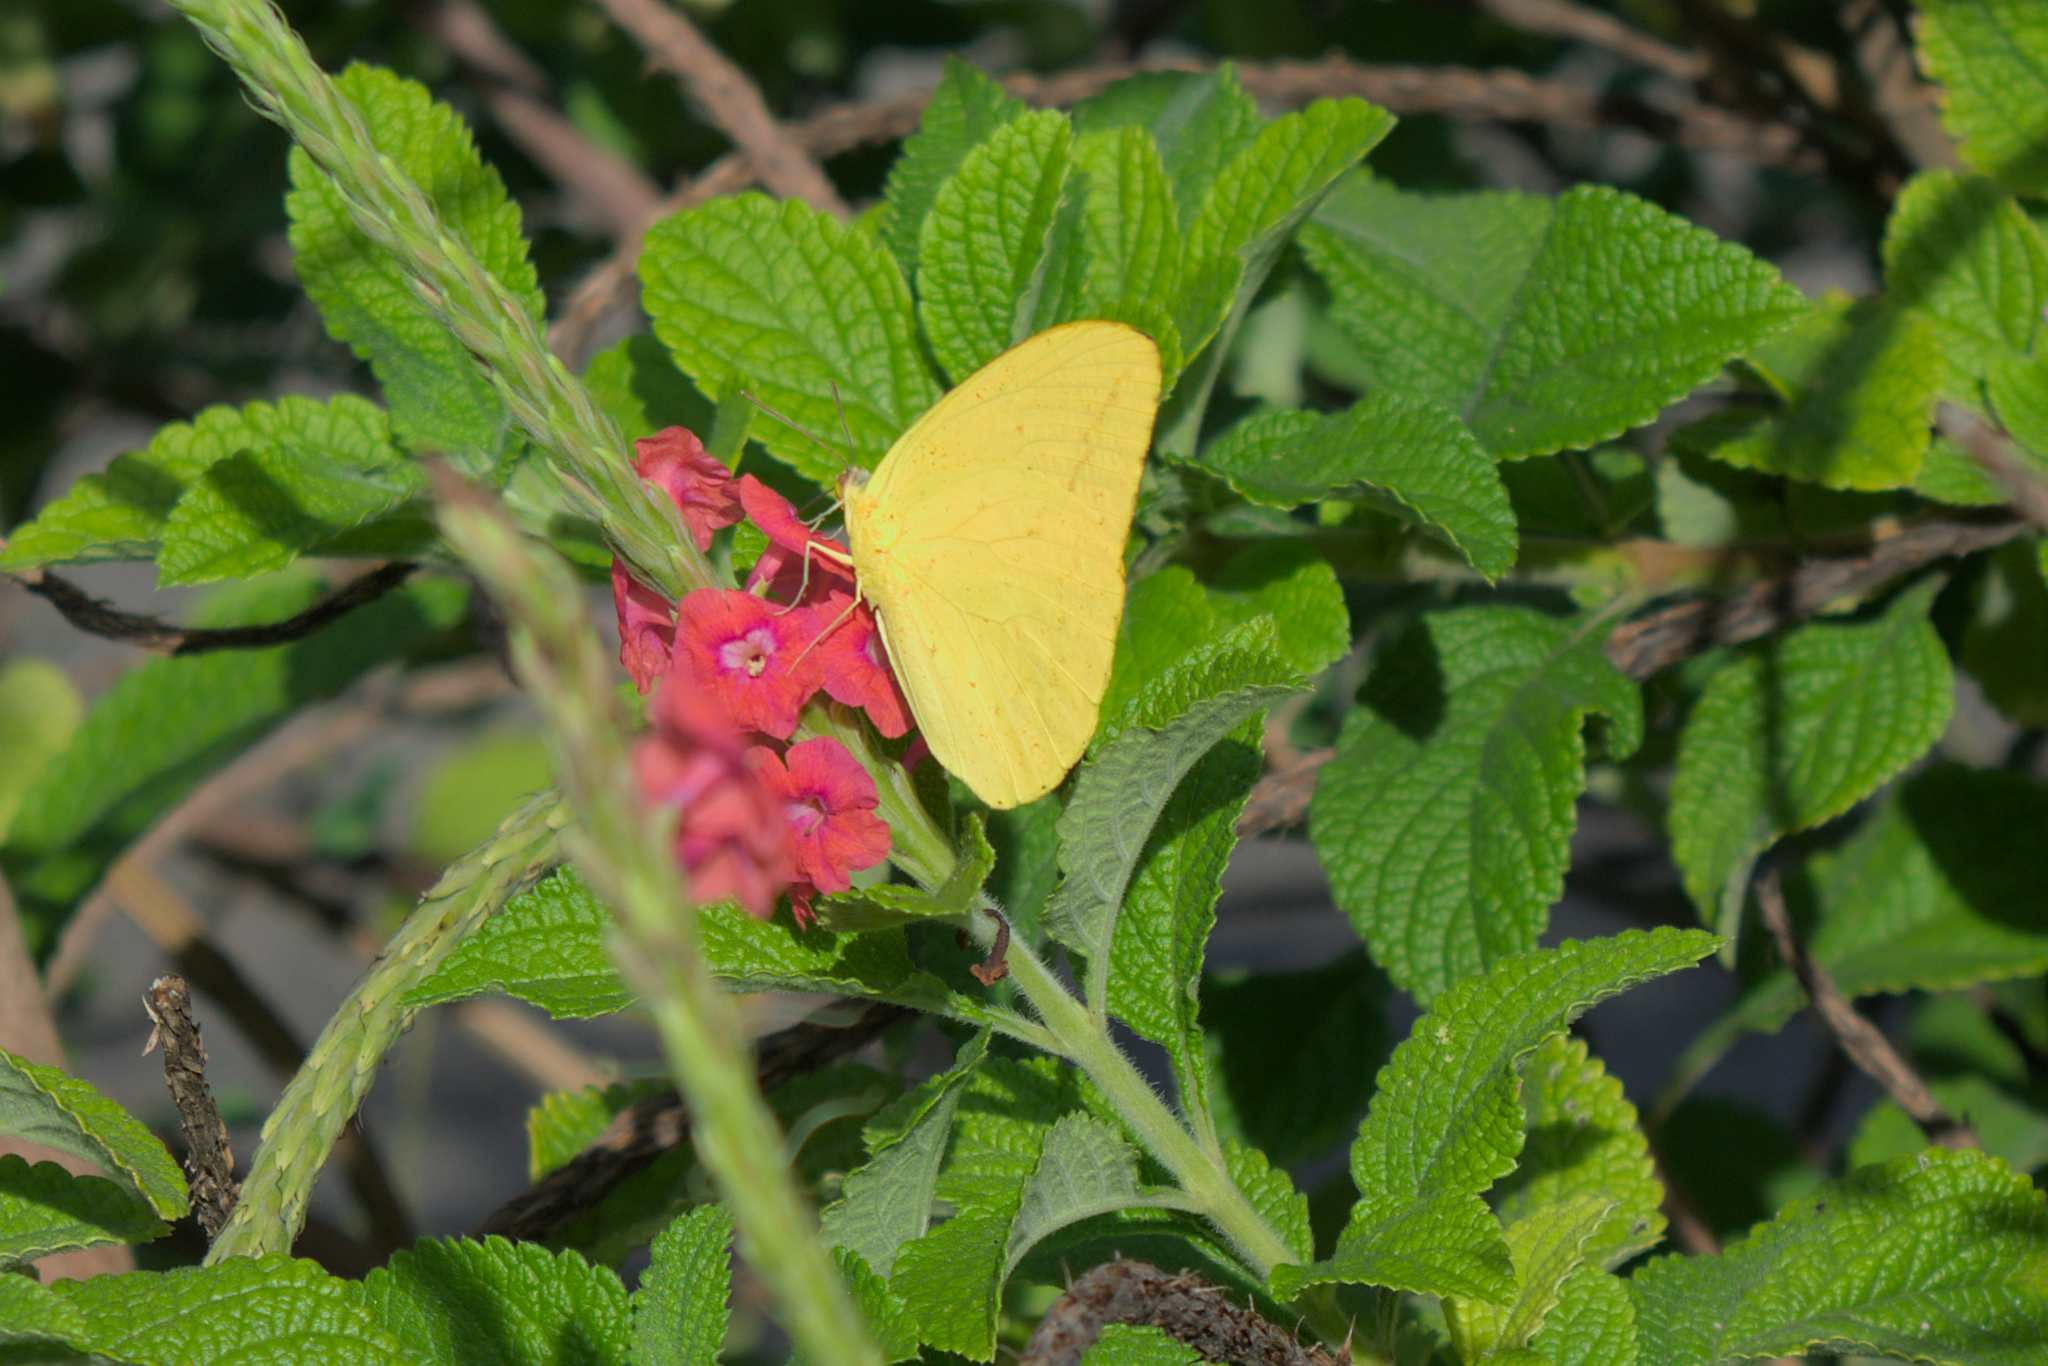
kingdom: Animalia
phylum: Arthropoda
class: Insecta
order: Lepidoptera
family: Pieridae
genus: Phoebis
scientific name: Phoebis agarithe
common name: Large orange sulphur
